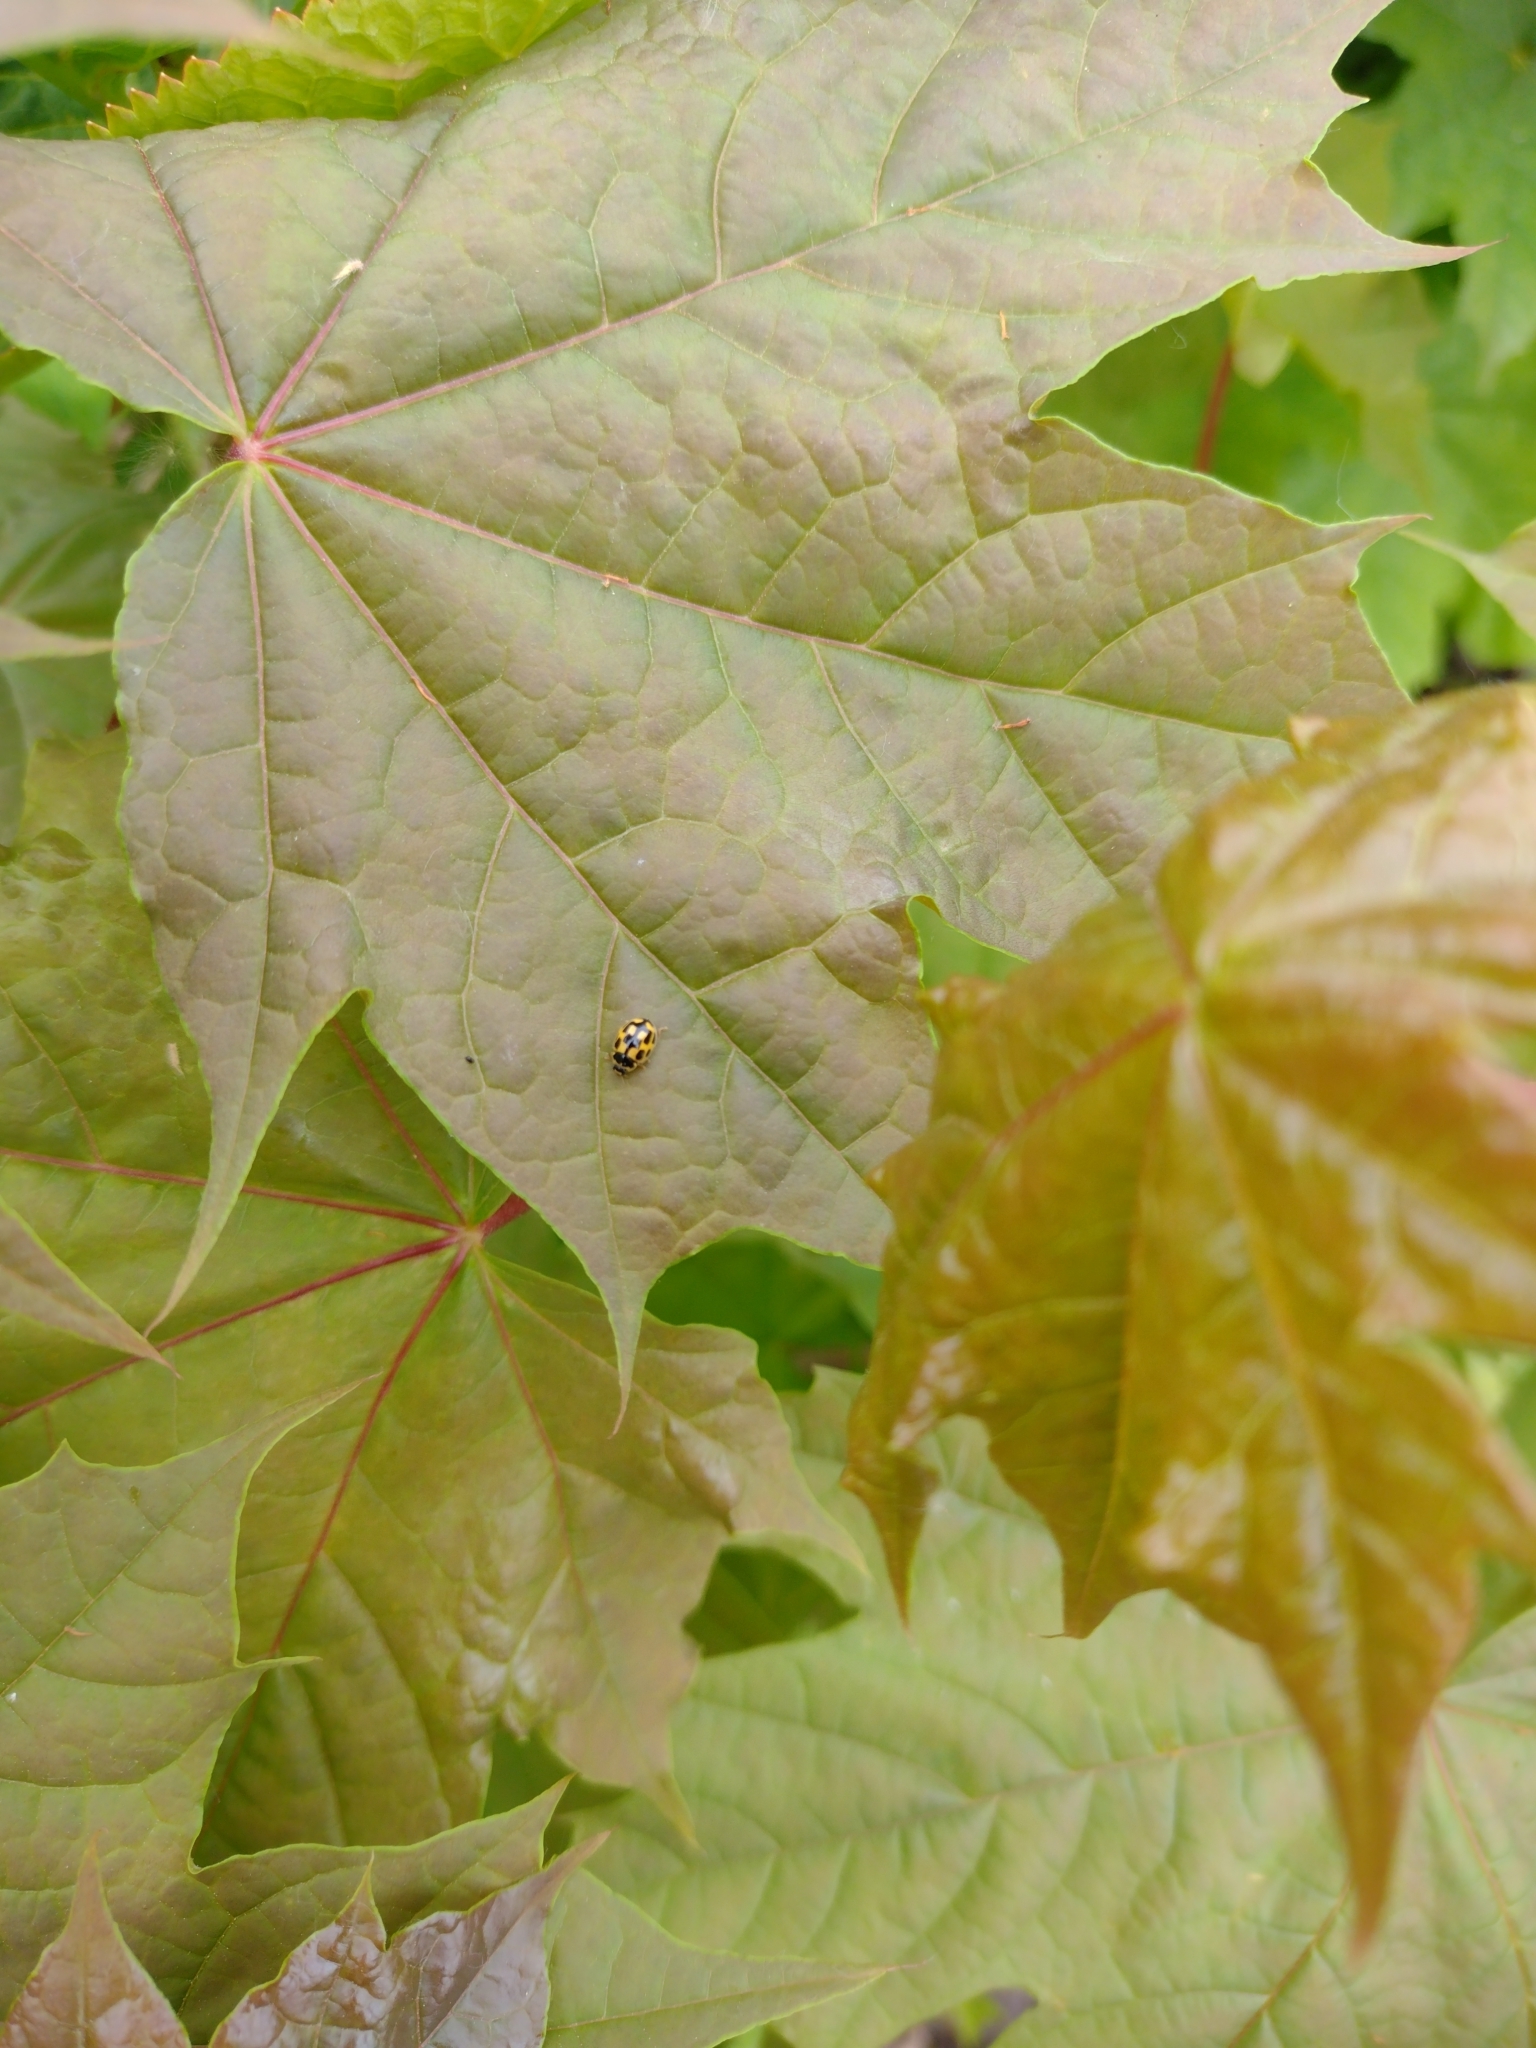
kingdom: Animalia
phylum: Arthropoda
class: Insecta
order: Coleoptera
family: Coccinellidae
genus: Propylaea
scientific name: Propylaea quatuordecimpunctata
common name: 14-spotted ladybird beetle
